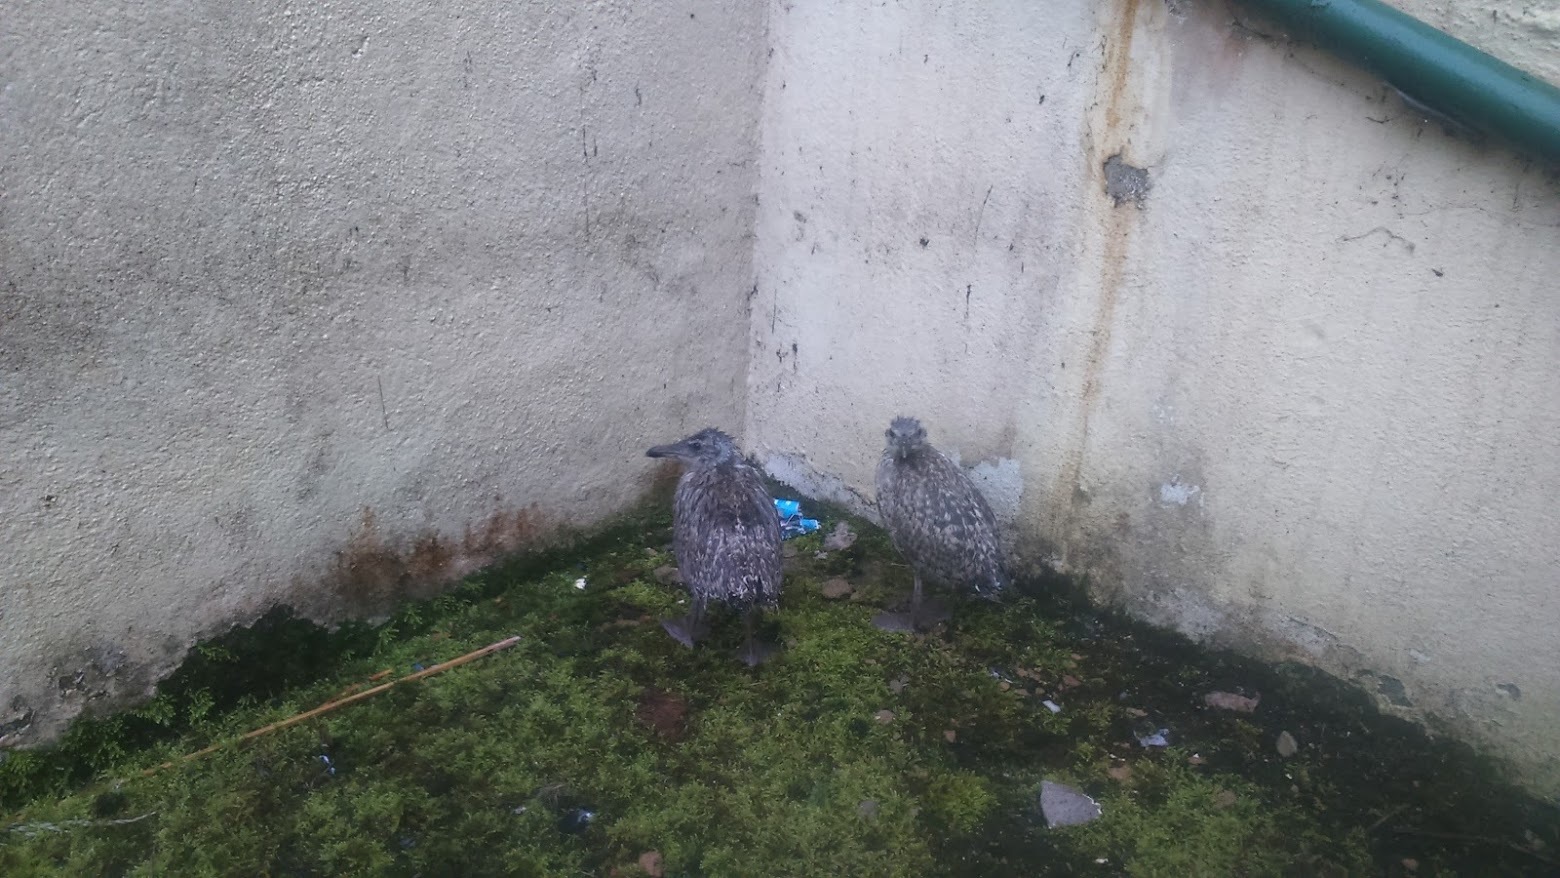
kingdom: Animalia
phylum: Chordata
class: Aves
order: Charadriiformes
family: Laridae
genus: Larus
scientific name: Larus
